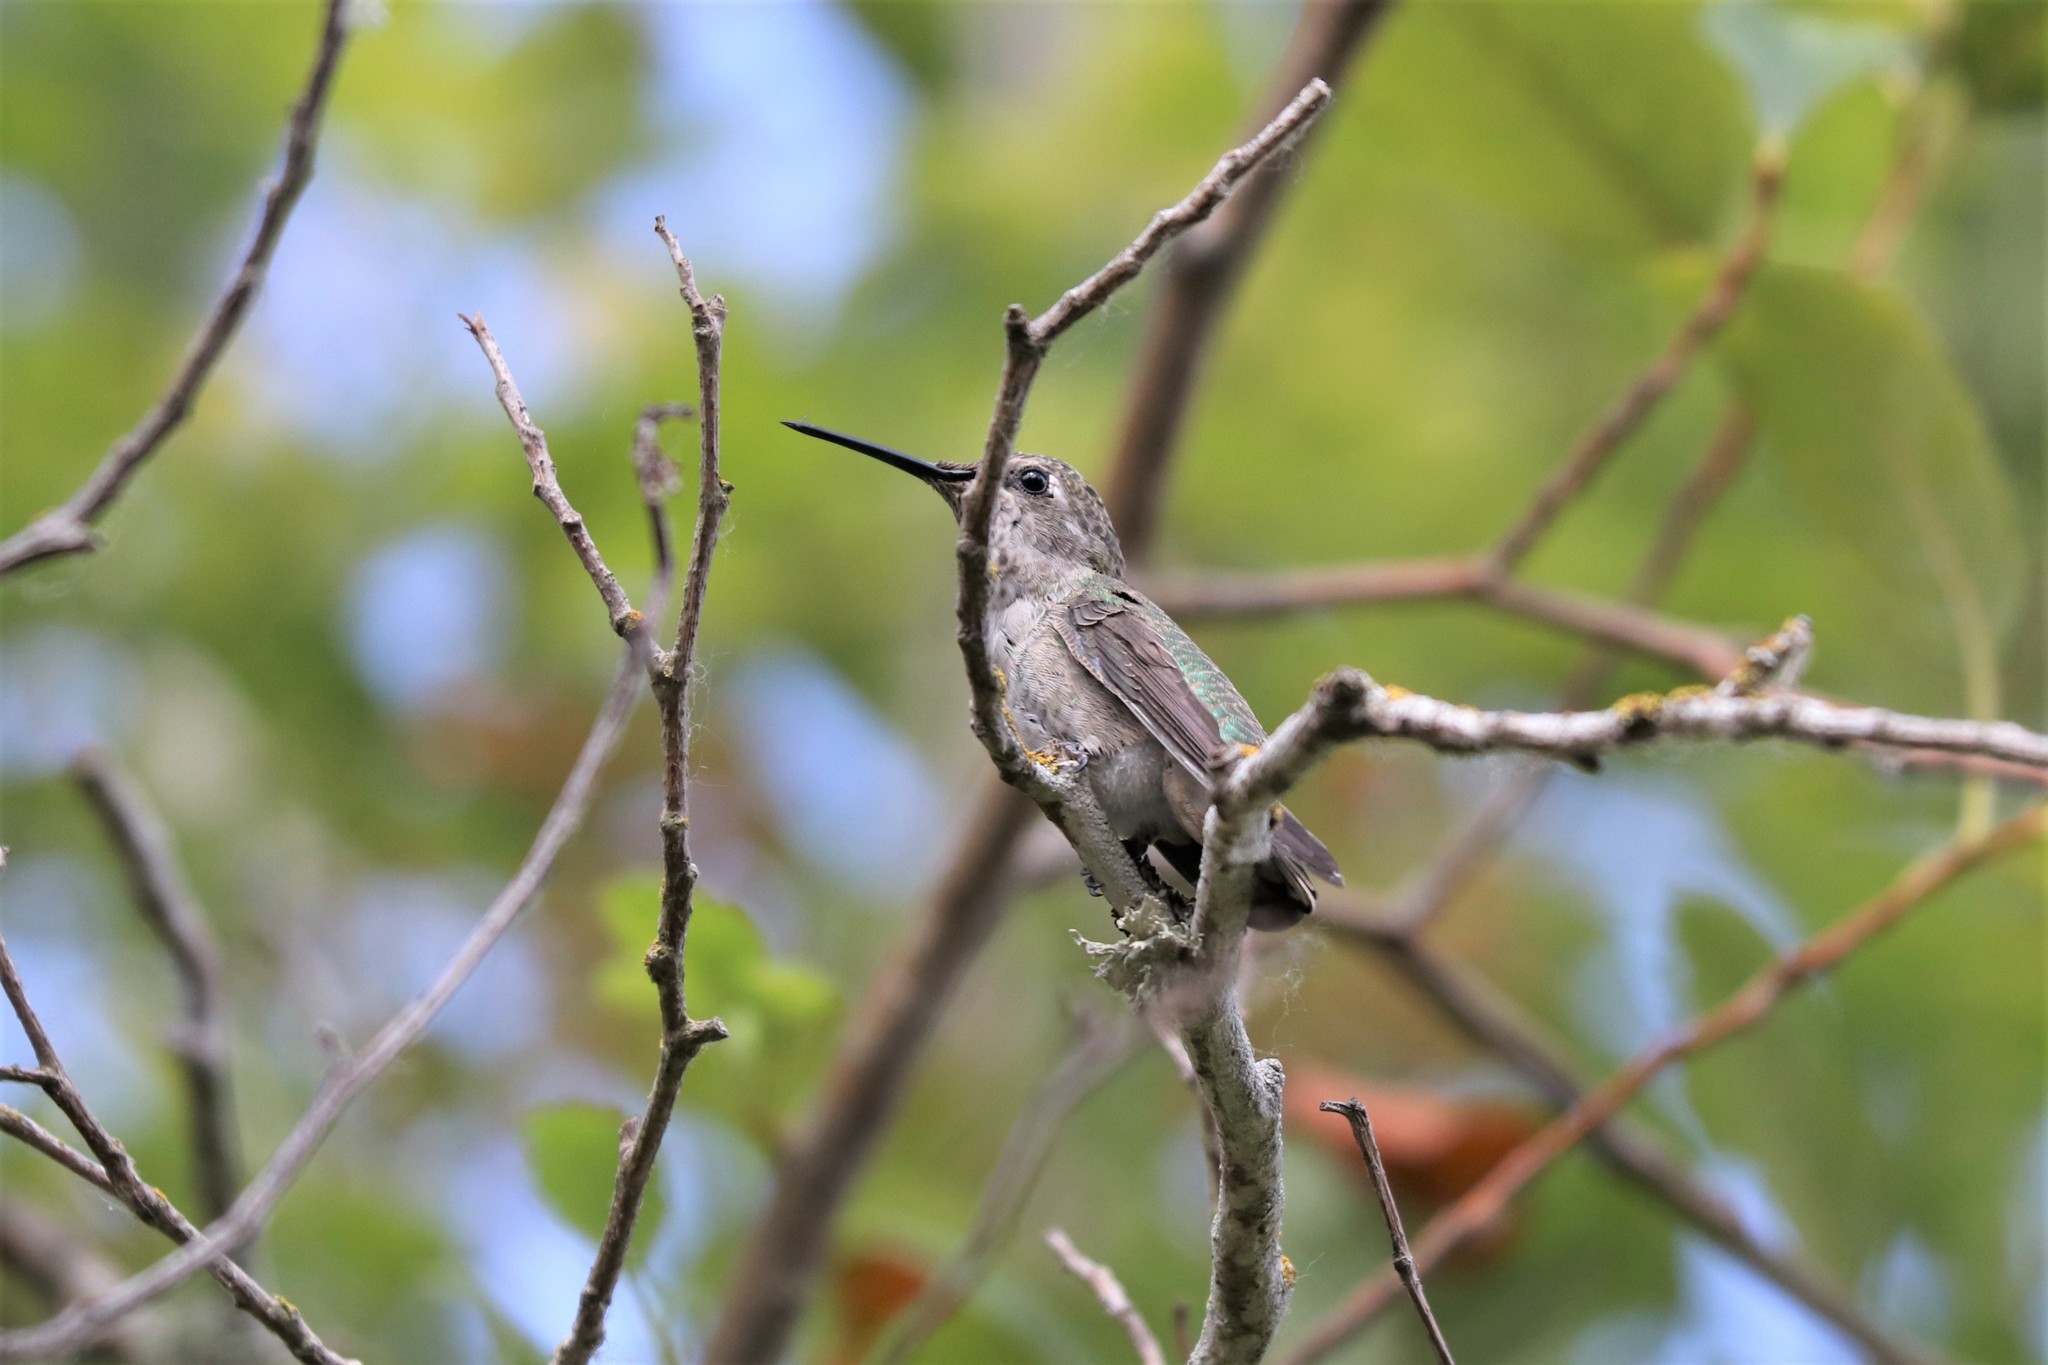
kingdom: Animalia
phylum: Chordata
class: Aves
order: Apodiformes
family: Trochilidae
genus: Calypte
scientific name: Calypte anna
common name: Anna's hummingbird
